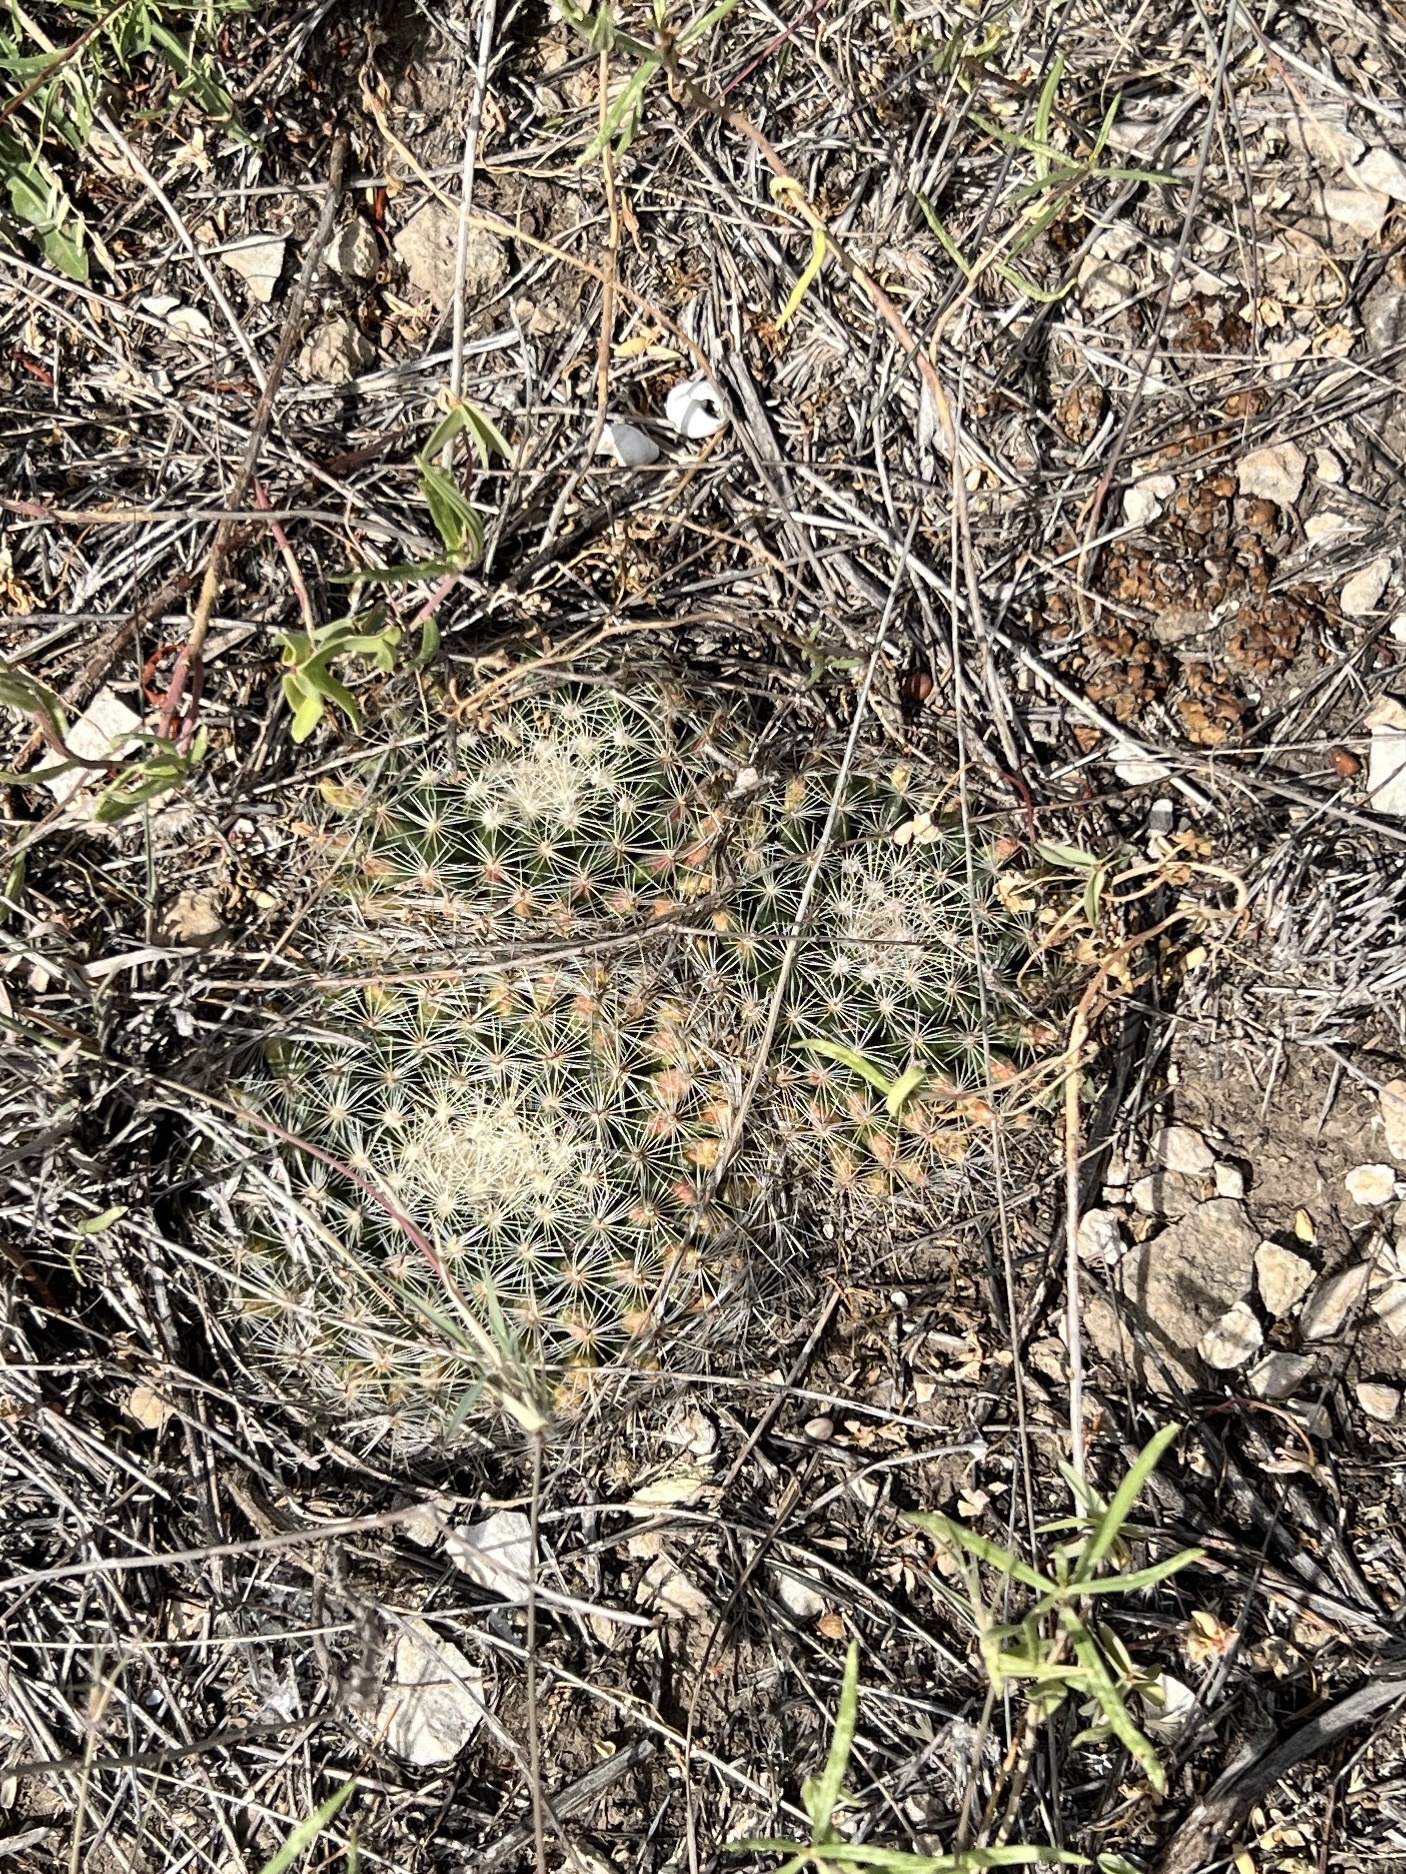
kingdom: Plantae
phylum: Tracheophyta
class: Magnoliopsida
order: Caryophyllales
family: Cactaceae
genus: Mammillaria
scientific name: Mammillaria heyderi
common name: Little nipple cactus
